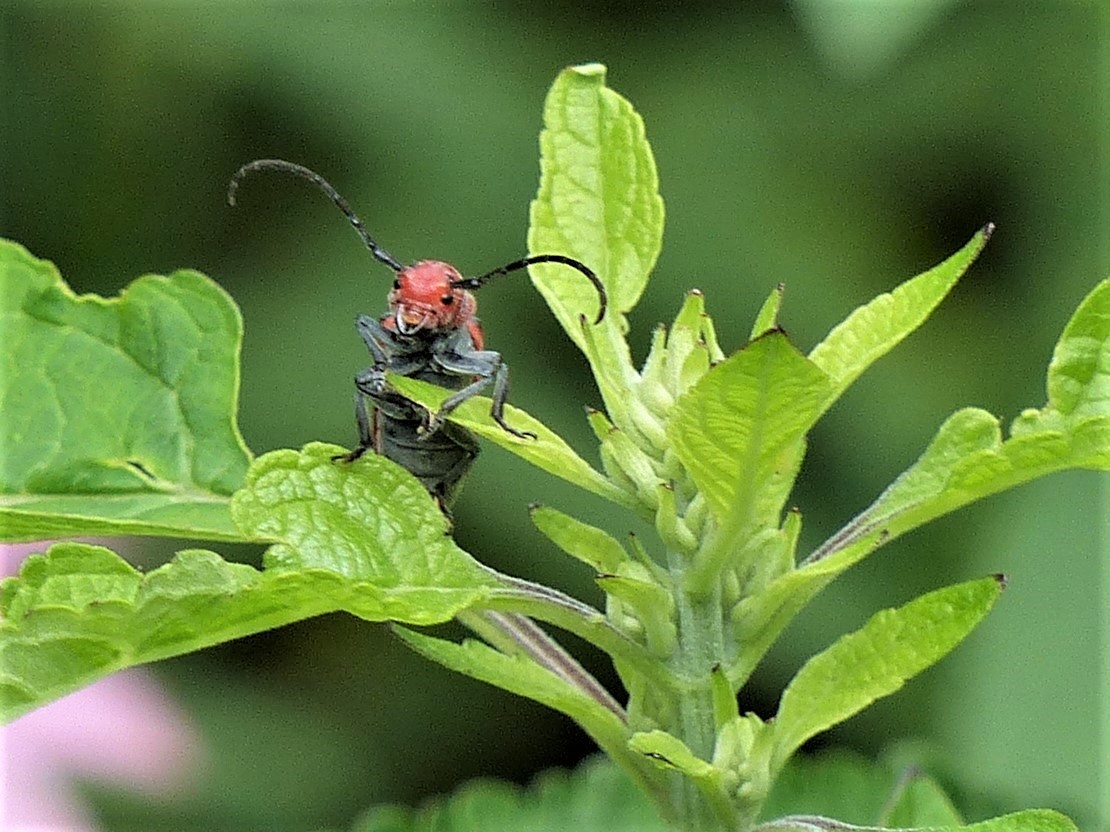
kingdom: Animalia
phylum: Arthropoda
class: Insecta
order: Coleoptera
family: Cerambycidae
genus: Tetraopes
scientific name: Tetraopes tetrophthalmus
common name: Red milkweed beetle
